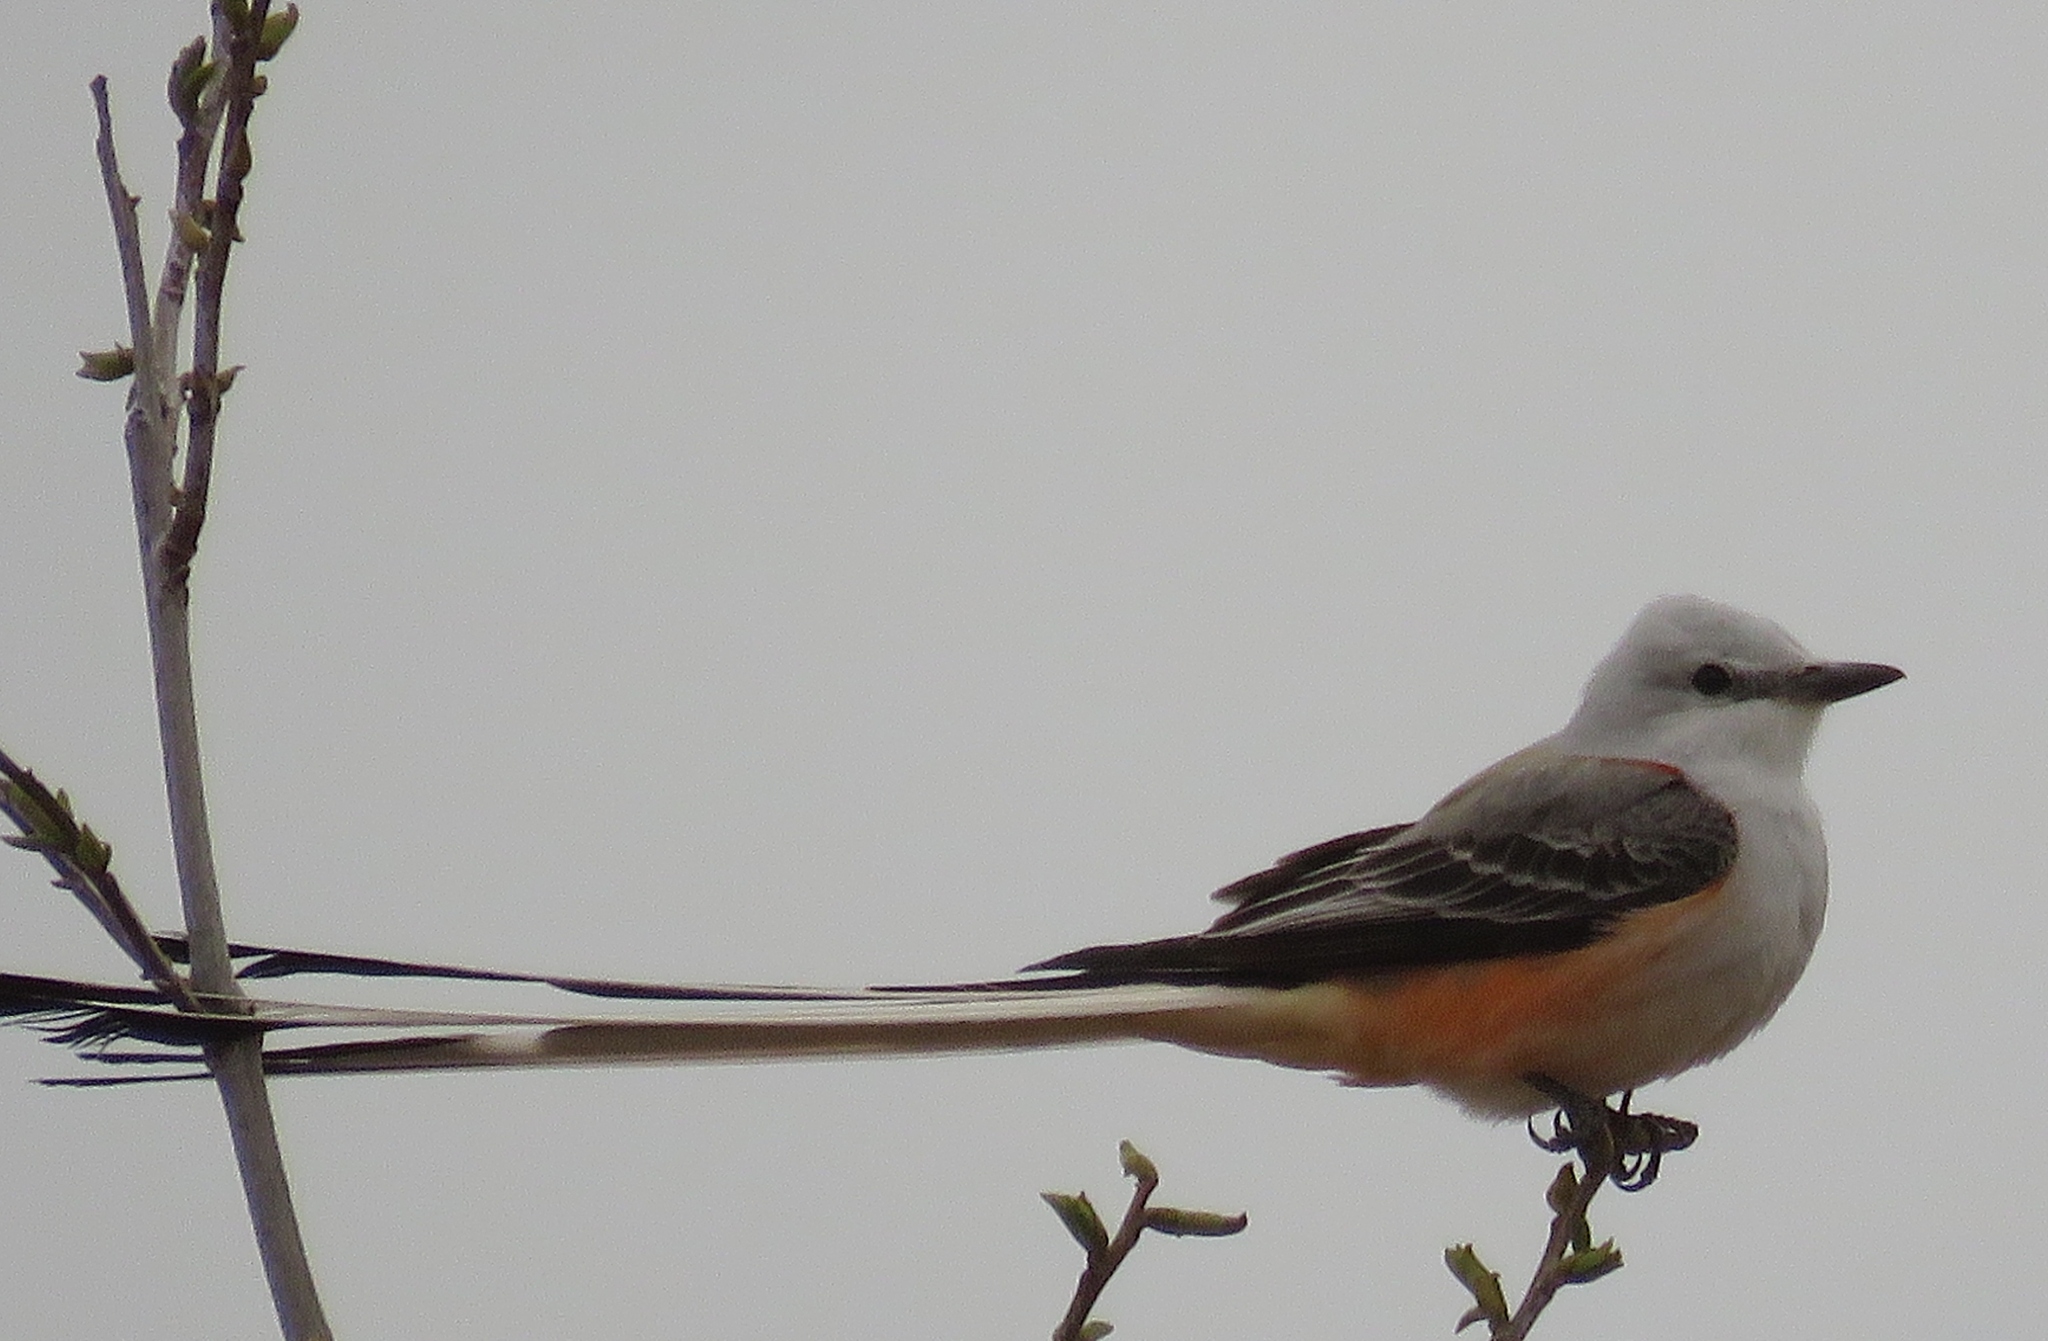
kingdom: Animalia
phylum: Chordata
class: Aves
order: Passeriformes
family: Tyrannidae
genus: Tyrannus
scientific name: Tyrannus forficatus
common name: Scissor-tailed flycatcher
